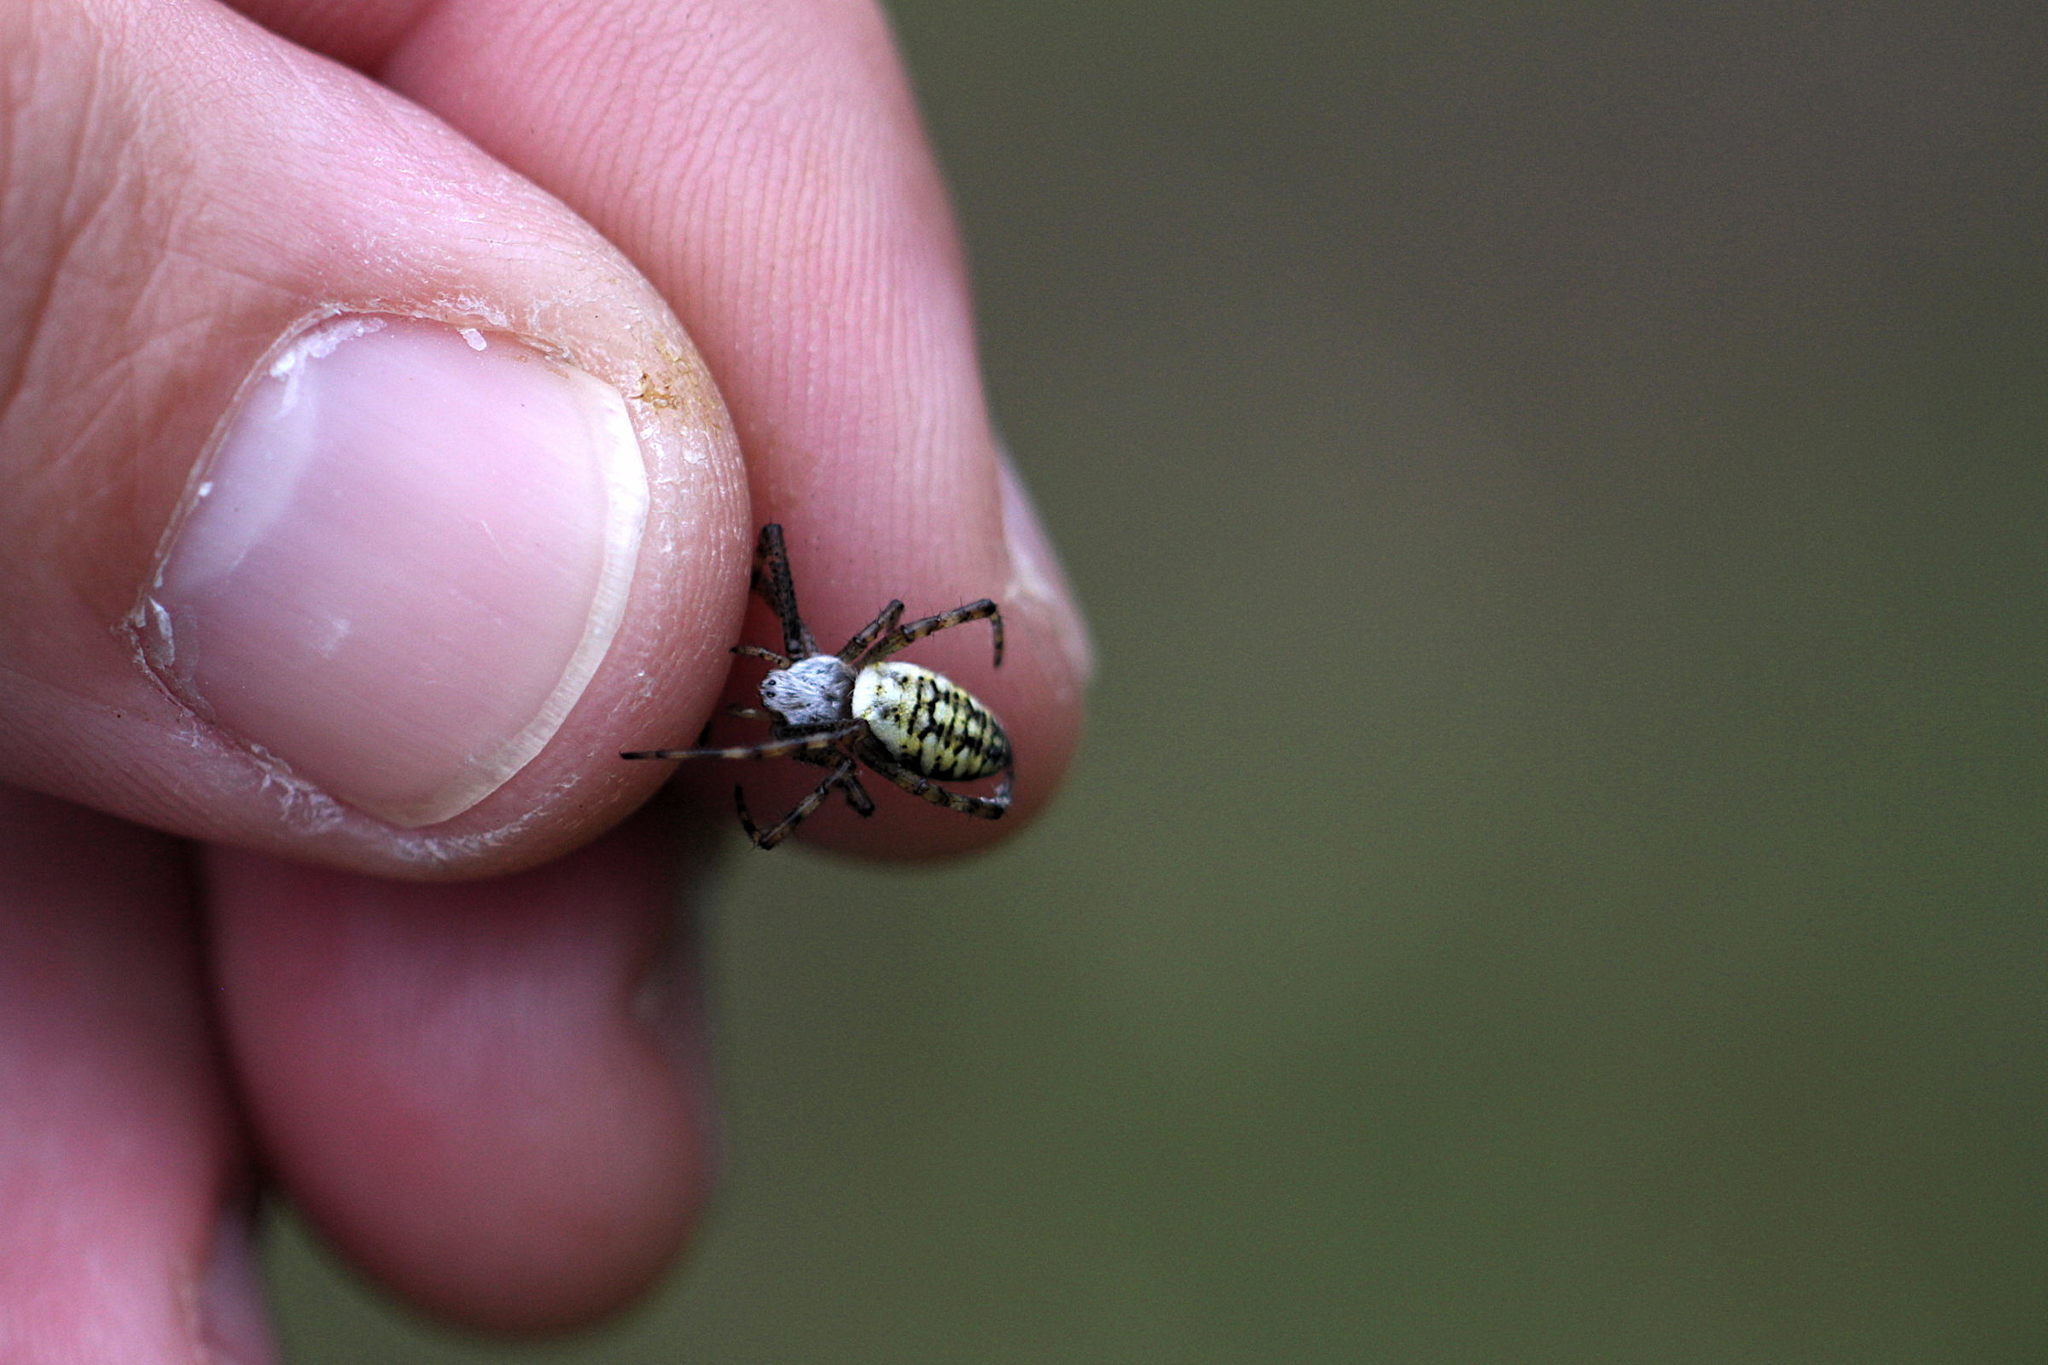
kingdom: Animalia
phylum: Arthropoda
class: Arachnida
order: Araneae
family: Araneidae
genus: Argiope
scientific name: Argiope bruennichi
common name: Wasp spider
